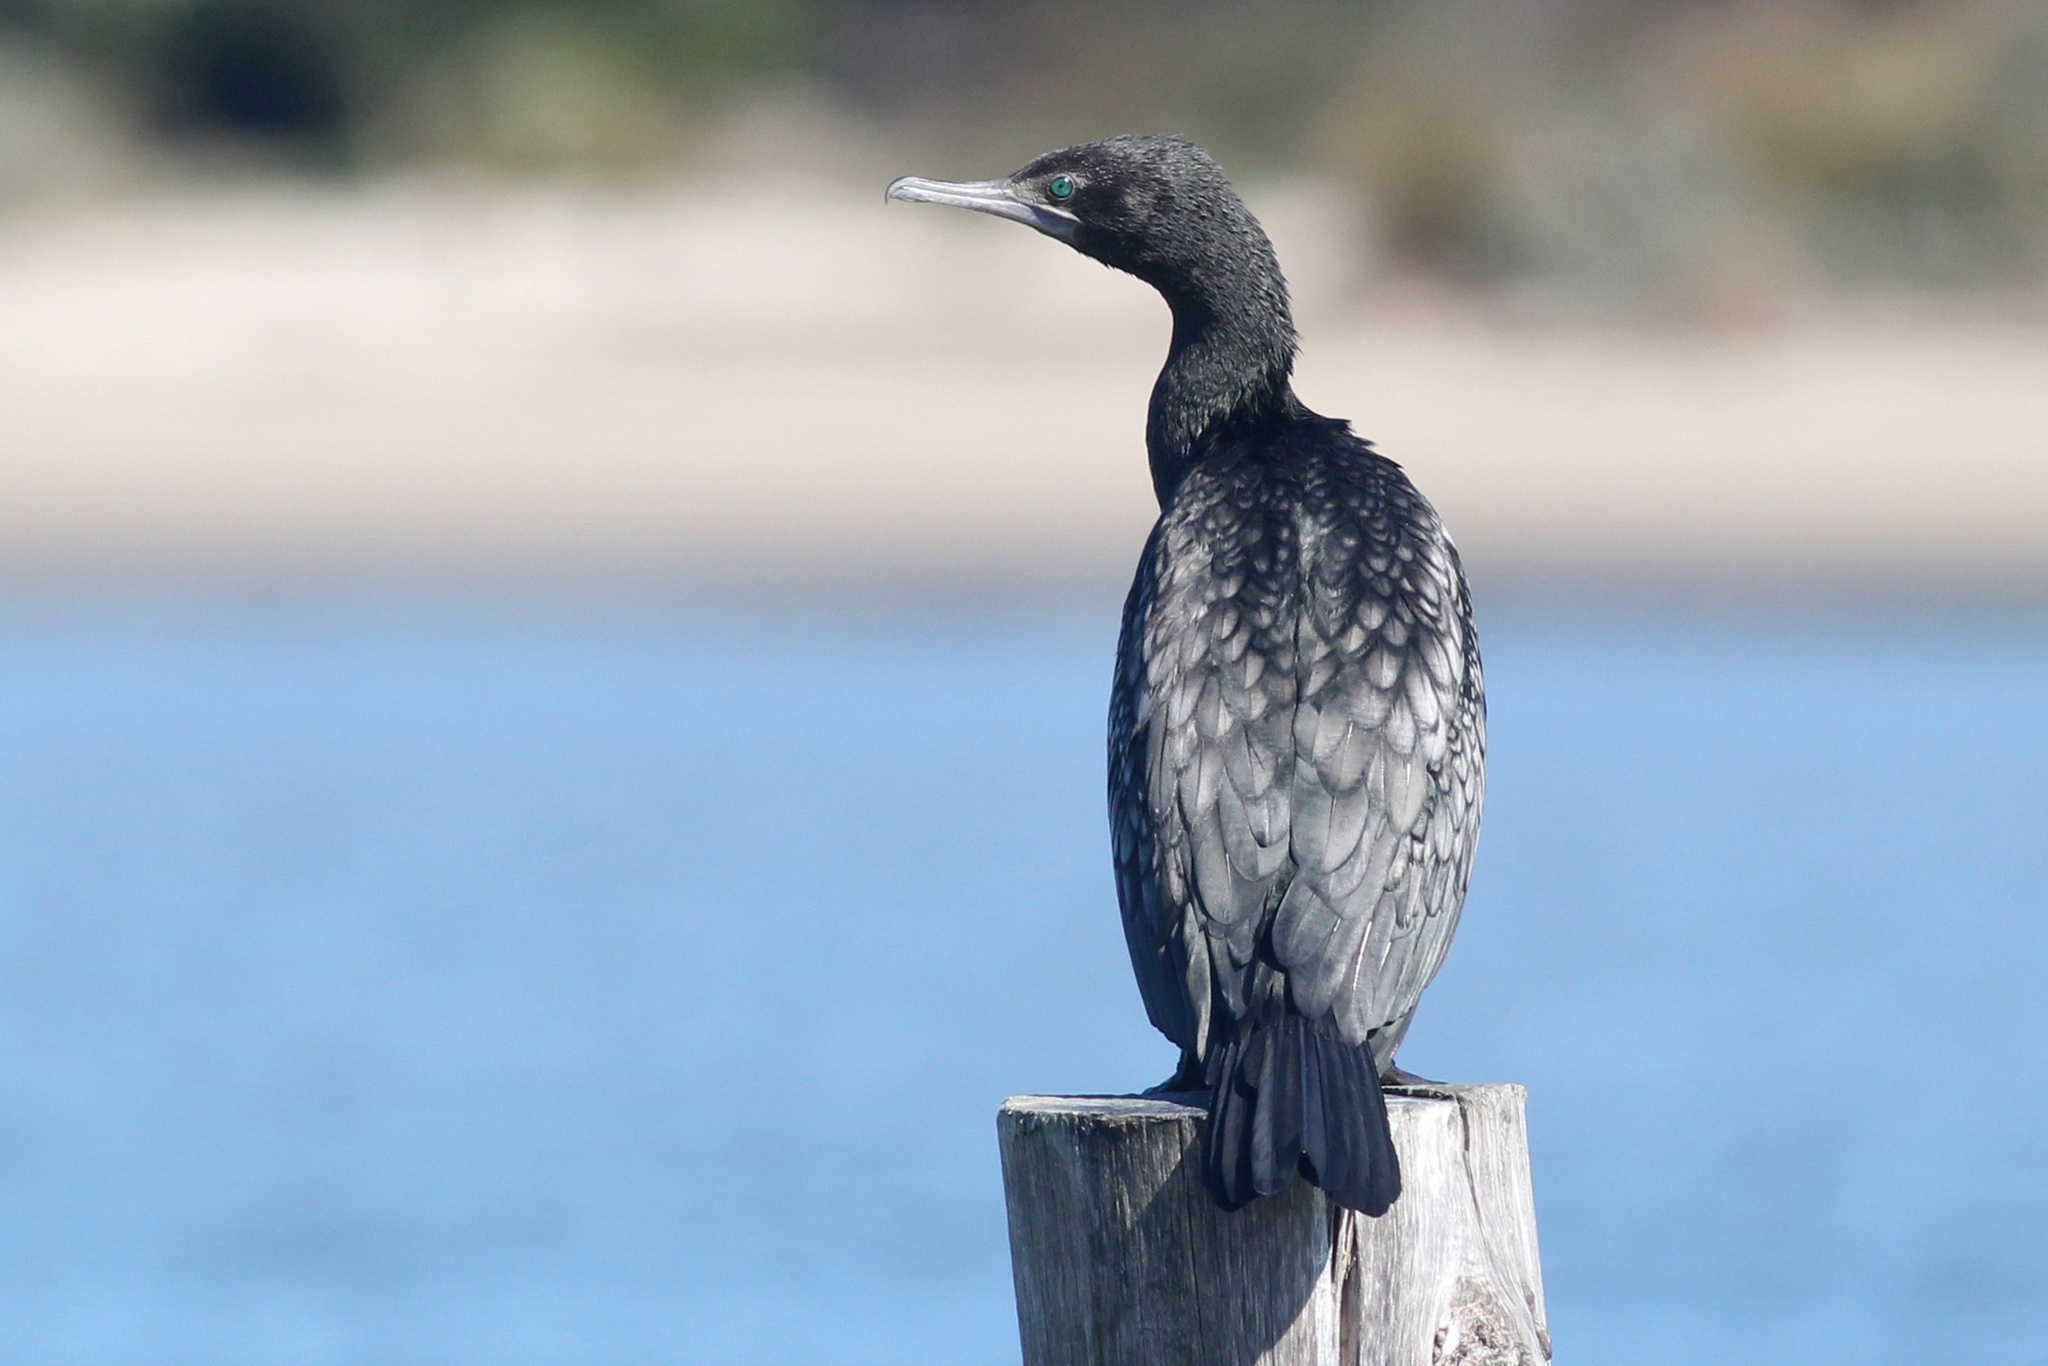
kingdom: Animalia
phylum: Chordata
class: Aves
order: Suliformes
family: Phalacrocoracidae
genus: Phalacrocorax
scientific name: Phalacrocorax sulcirostris
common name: Little black cormorant
